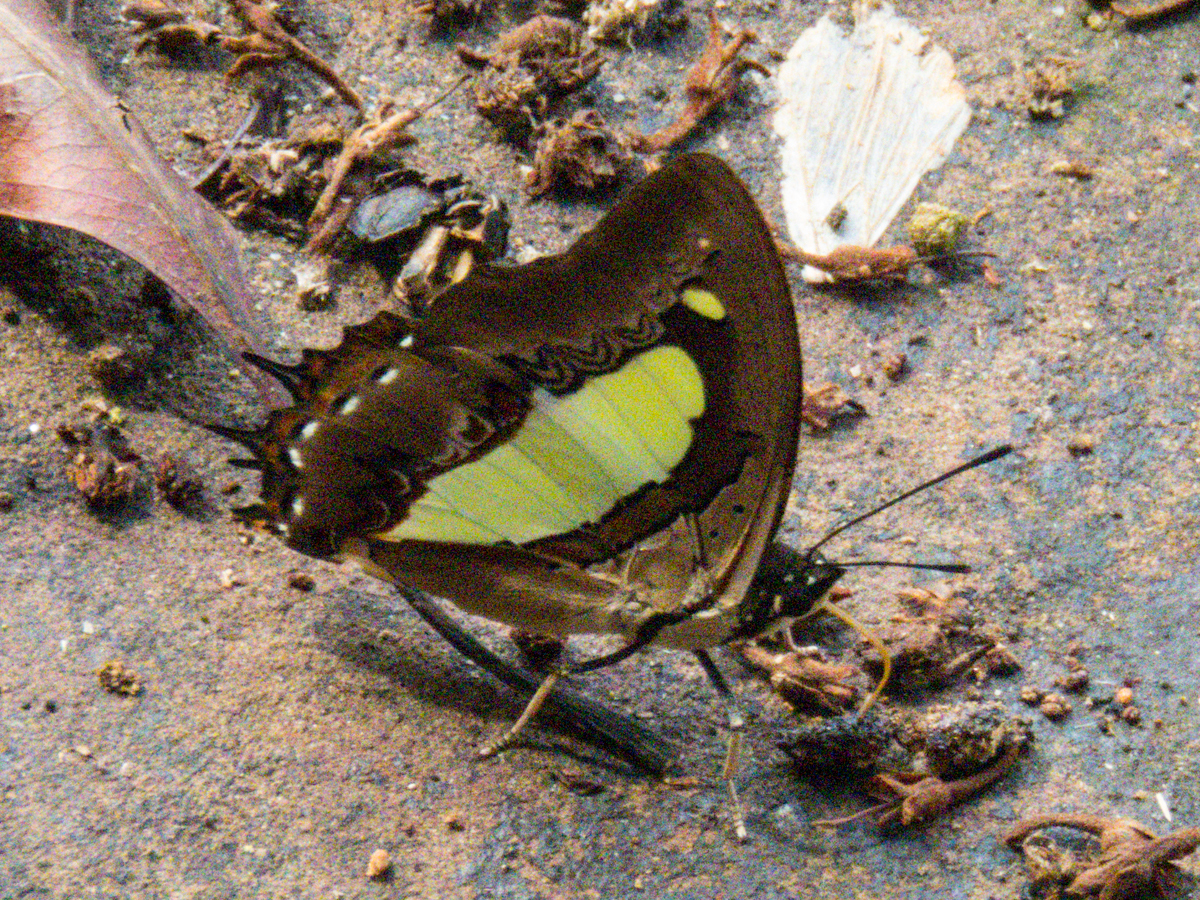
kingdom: Animalia
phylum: Arthropoda
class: Insecta
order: Lepidoptera
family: Nymphalidae
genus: Polyura
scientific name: Polyura athamas
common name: Common nawab
